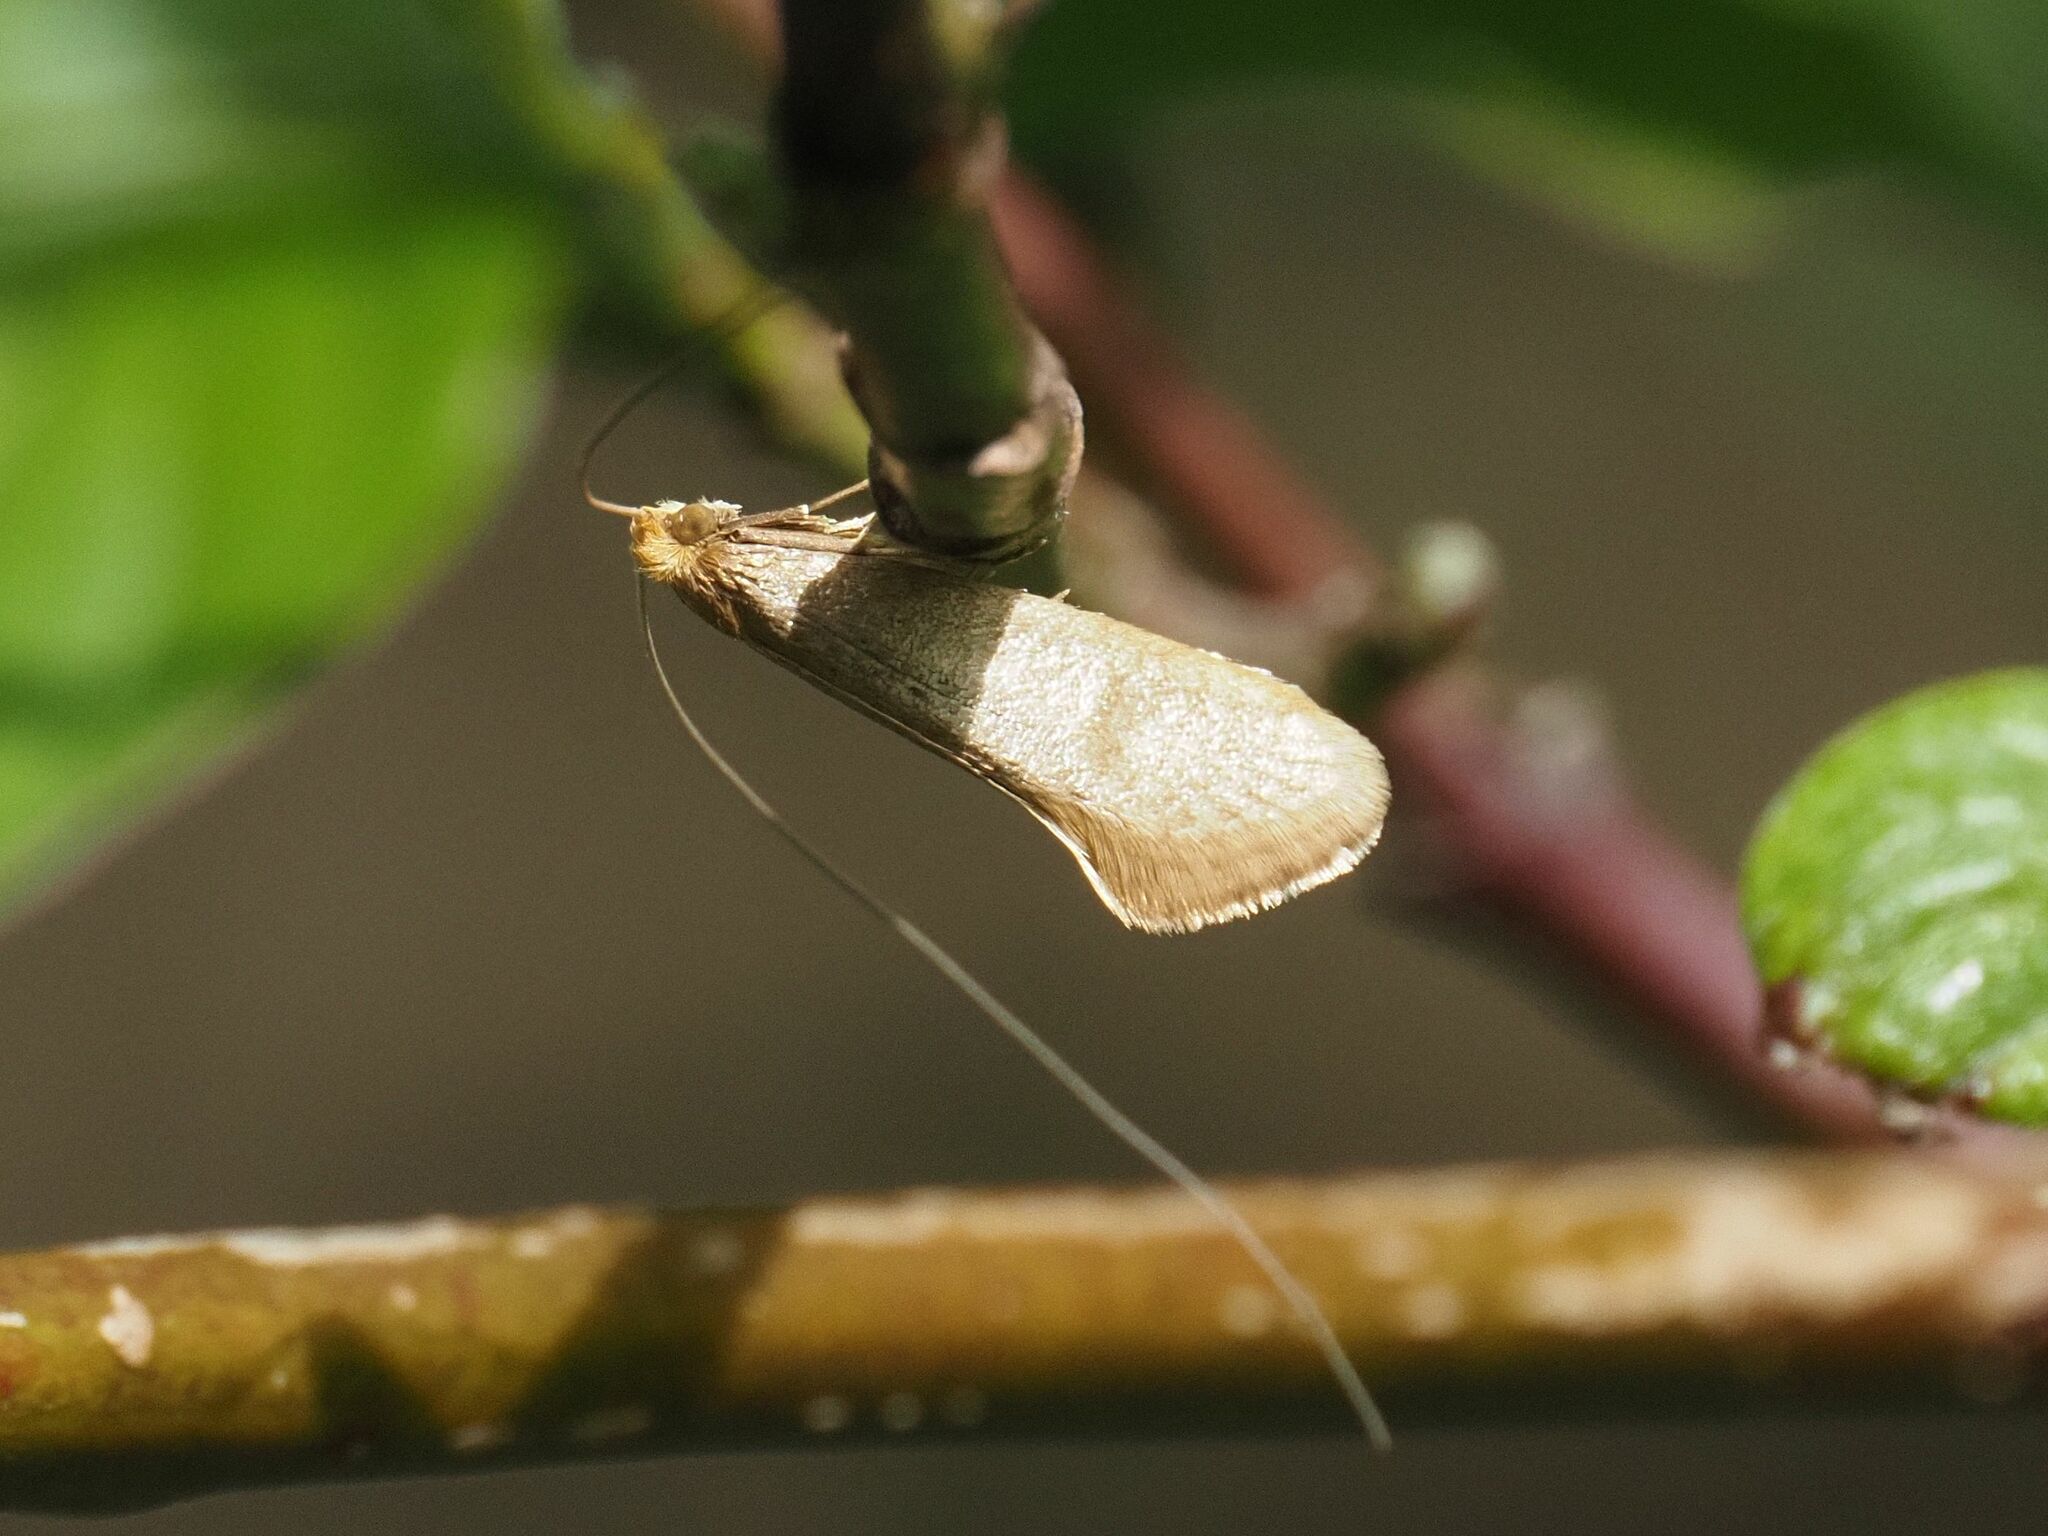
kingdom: Animalia
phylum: Arthropoda
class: Insecta
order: Lepidoptera
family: Adelidae
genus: Nematopogon
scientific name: Nematopogon swammerdamella
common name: Large long-horn
